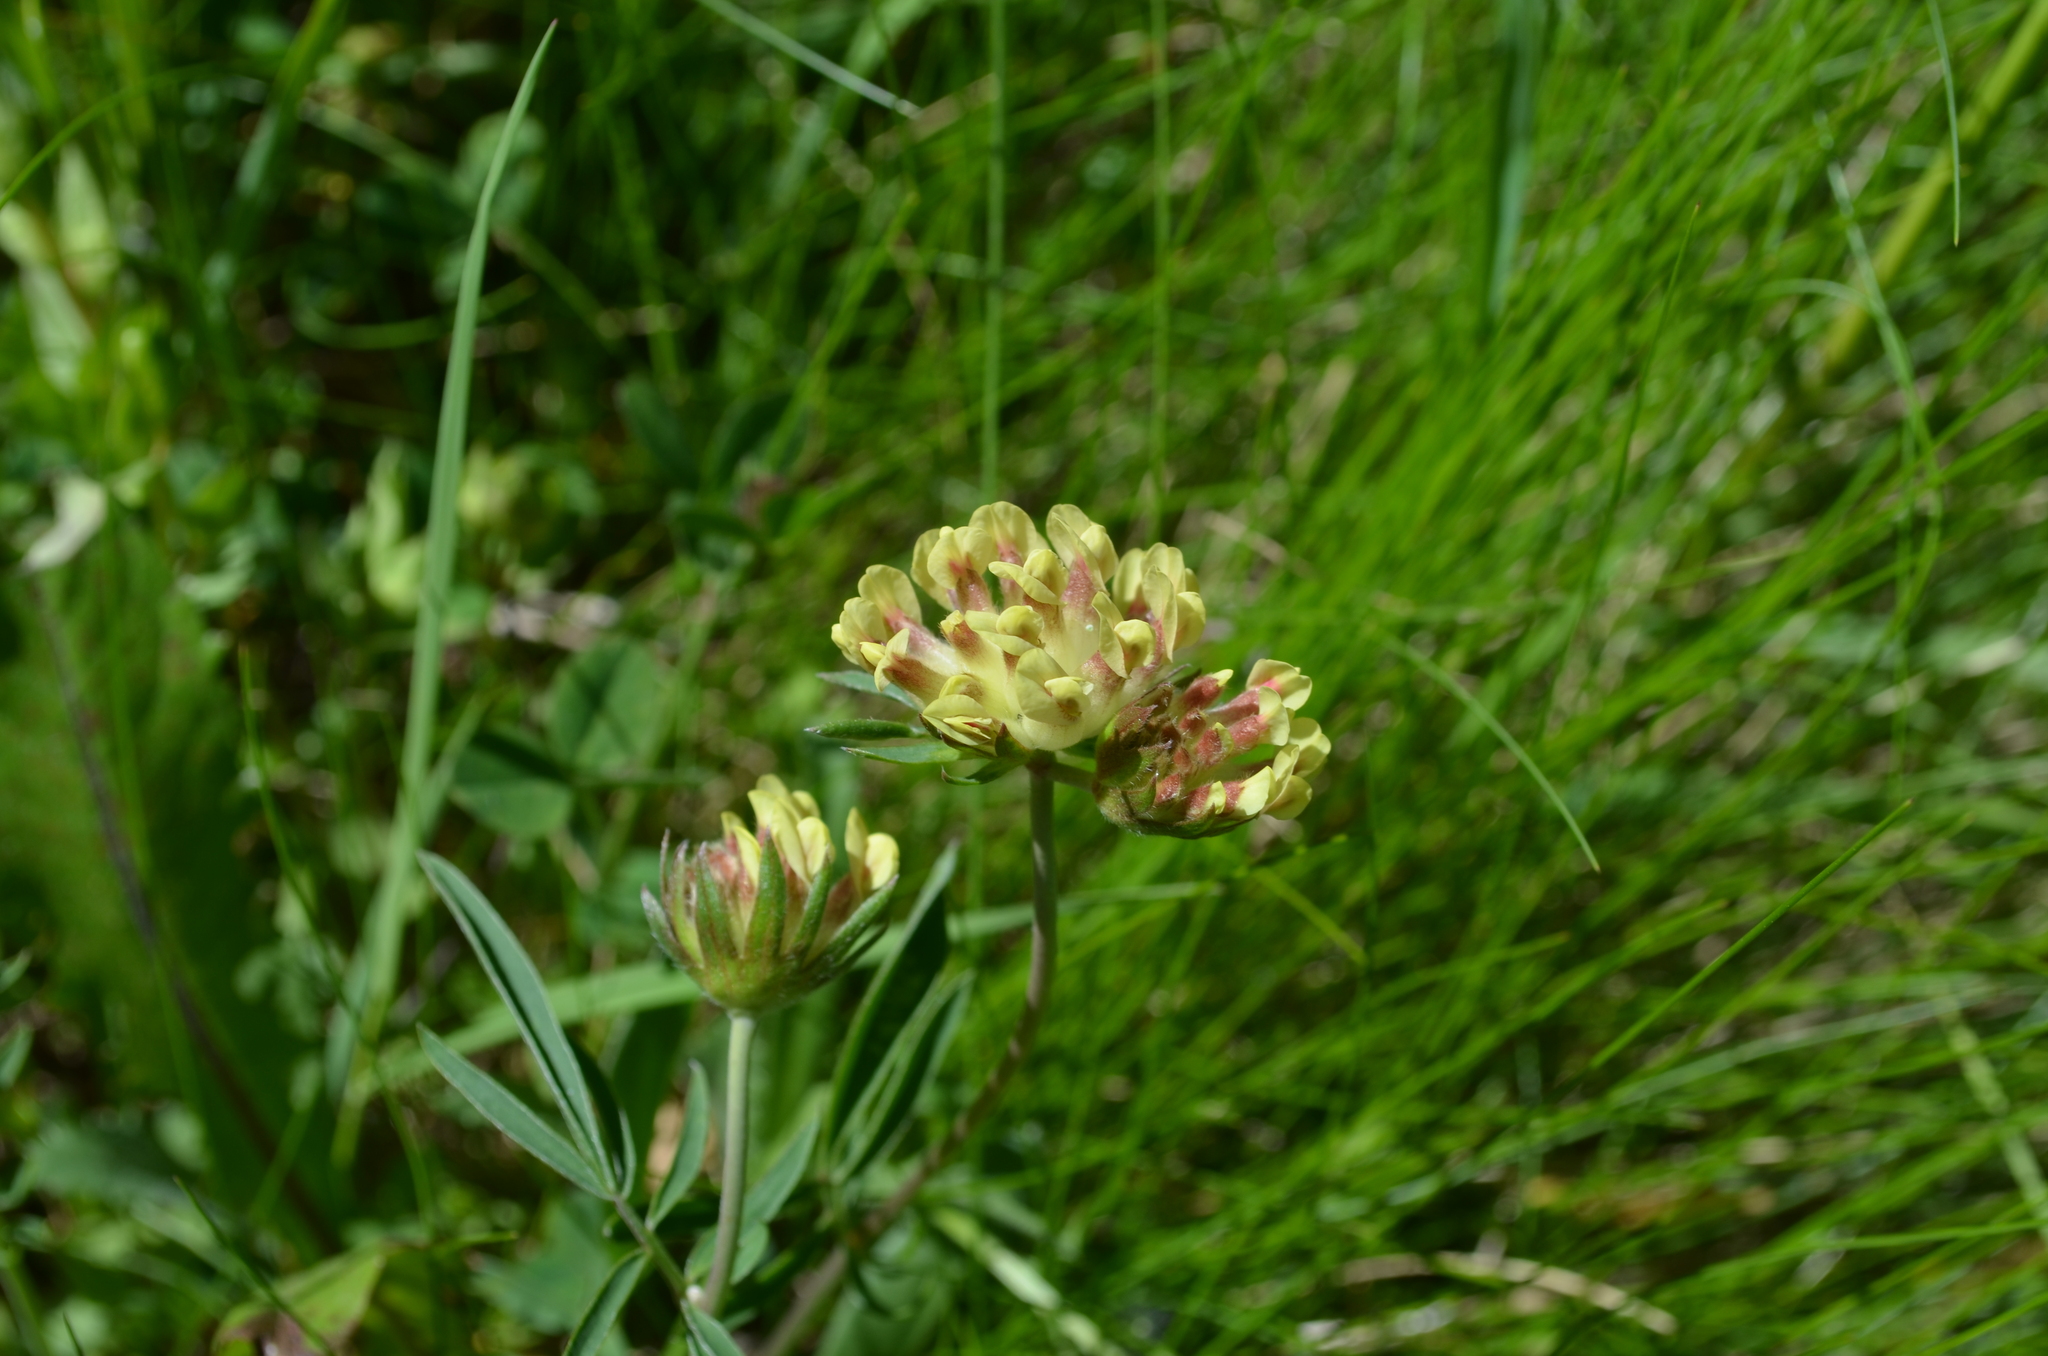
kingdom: Plantae
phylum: Tracheophyta
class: Magnoliopsida
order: Fabales
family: Fabaceae
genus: Anthyllis
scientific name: Anthyllis vulneraria
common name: Kidney vetch
